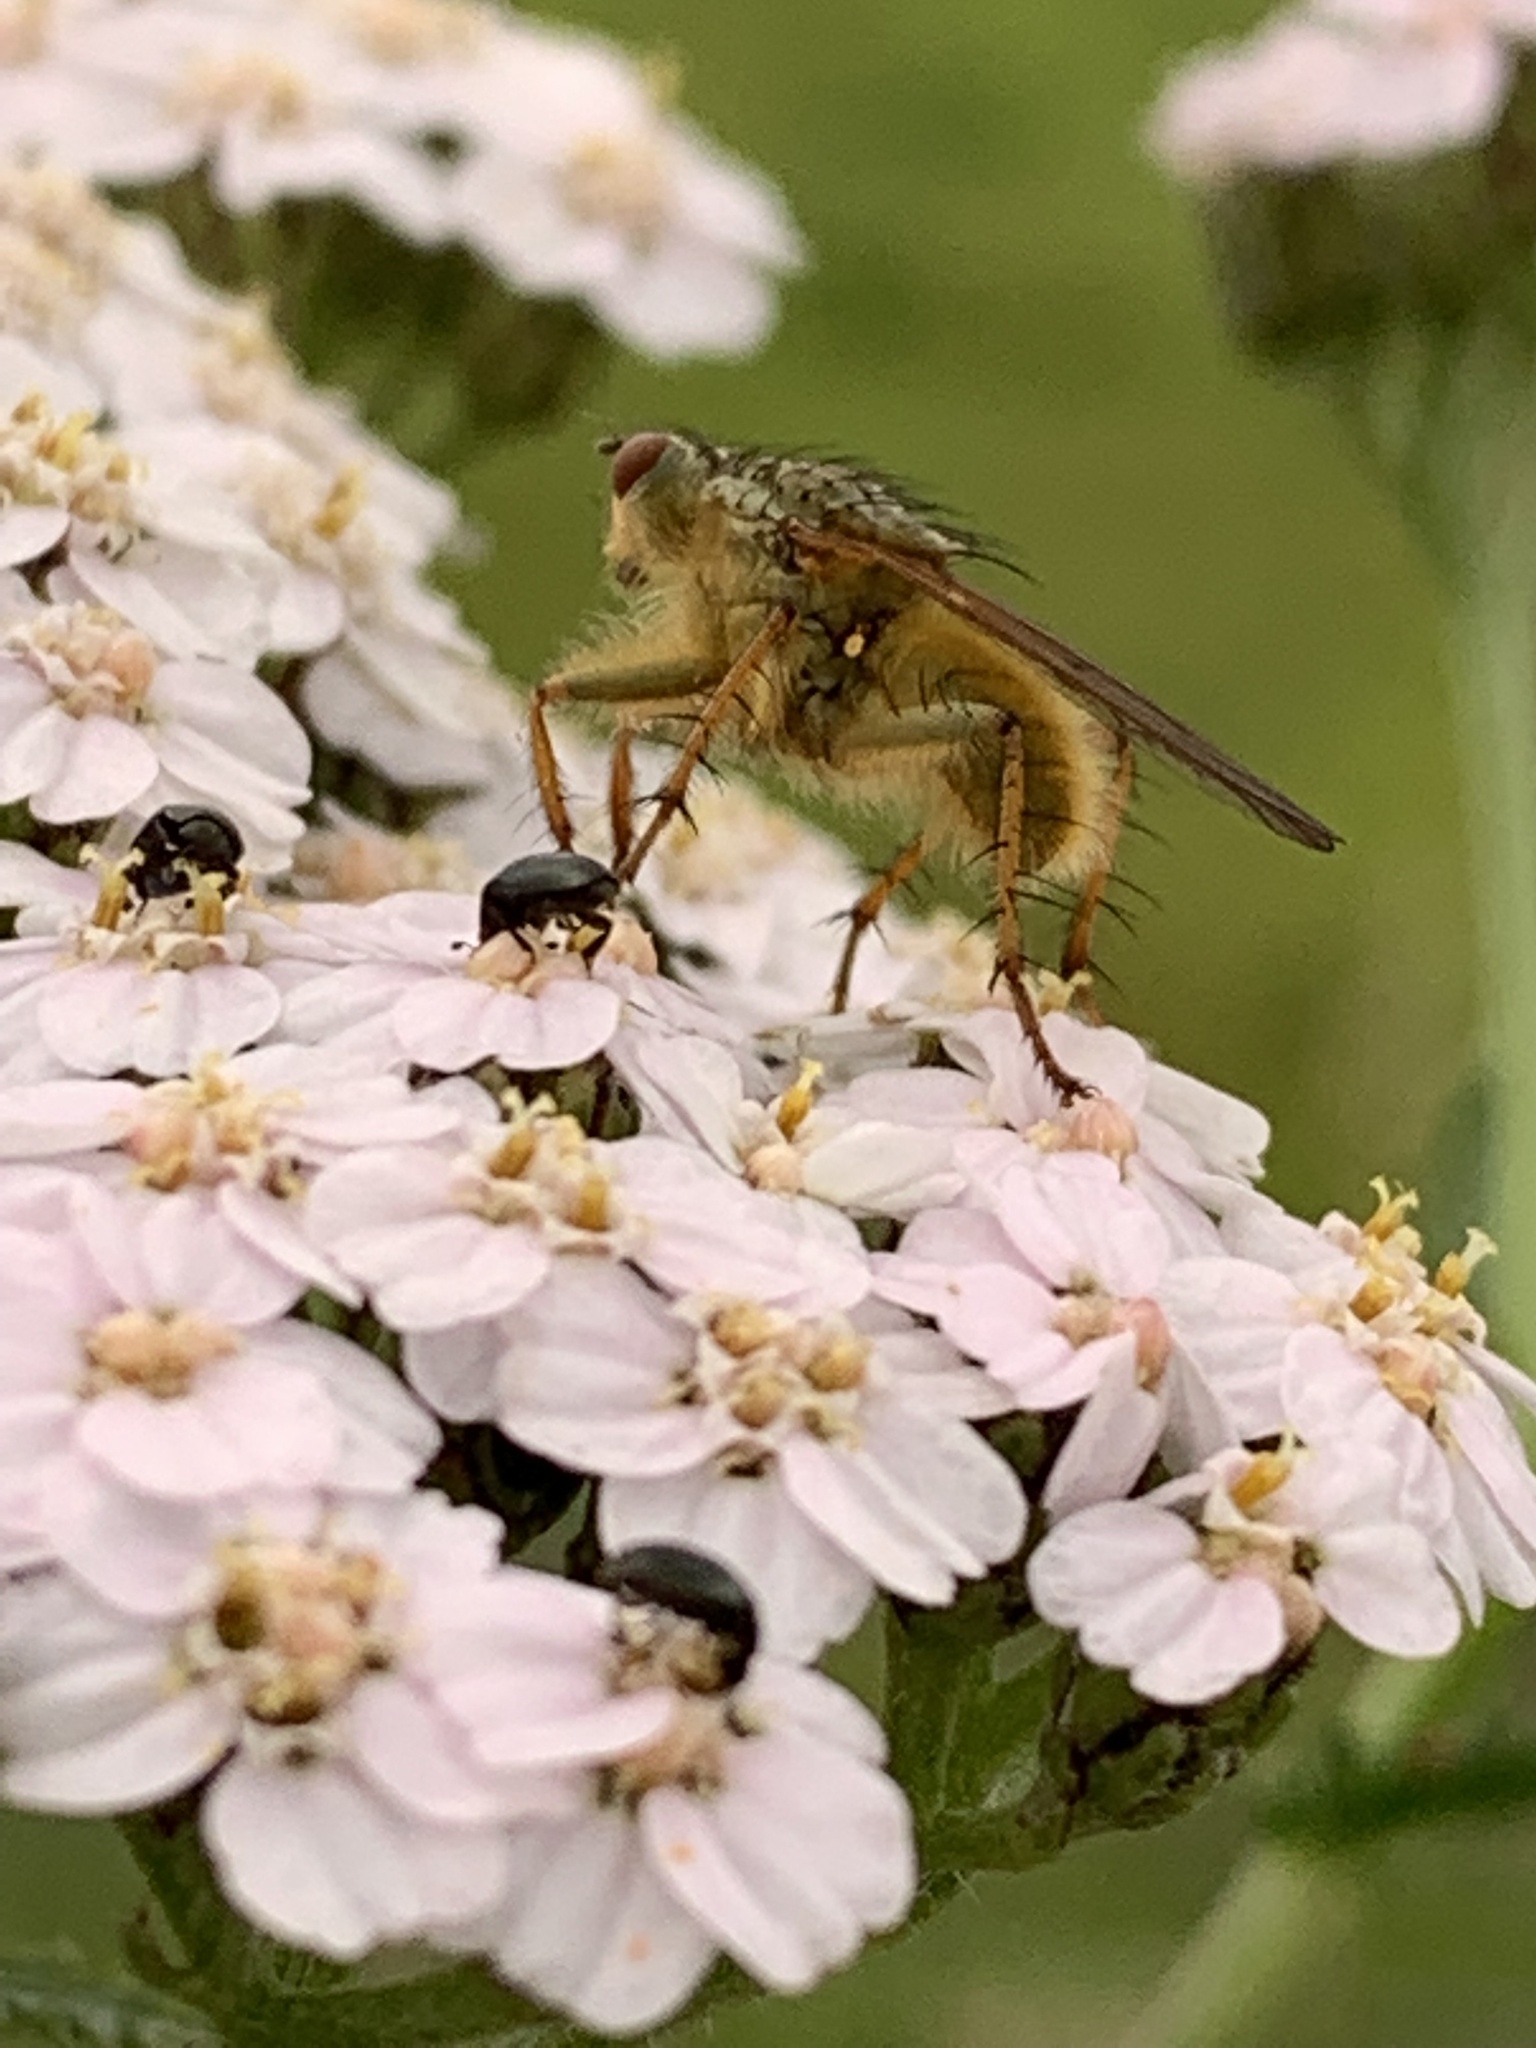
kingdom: Animalia
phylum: Arthropoda
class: Insecta
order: Diptera
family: Scathophagidae
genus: Scathophaga
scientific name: Scathophaga stercoraria
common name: Yellow dung fly
